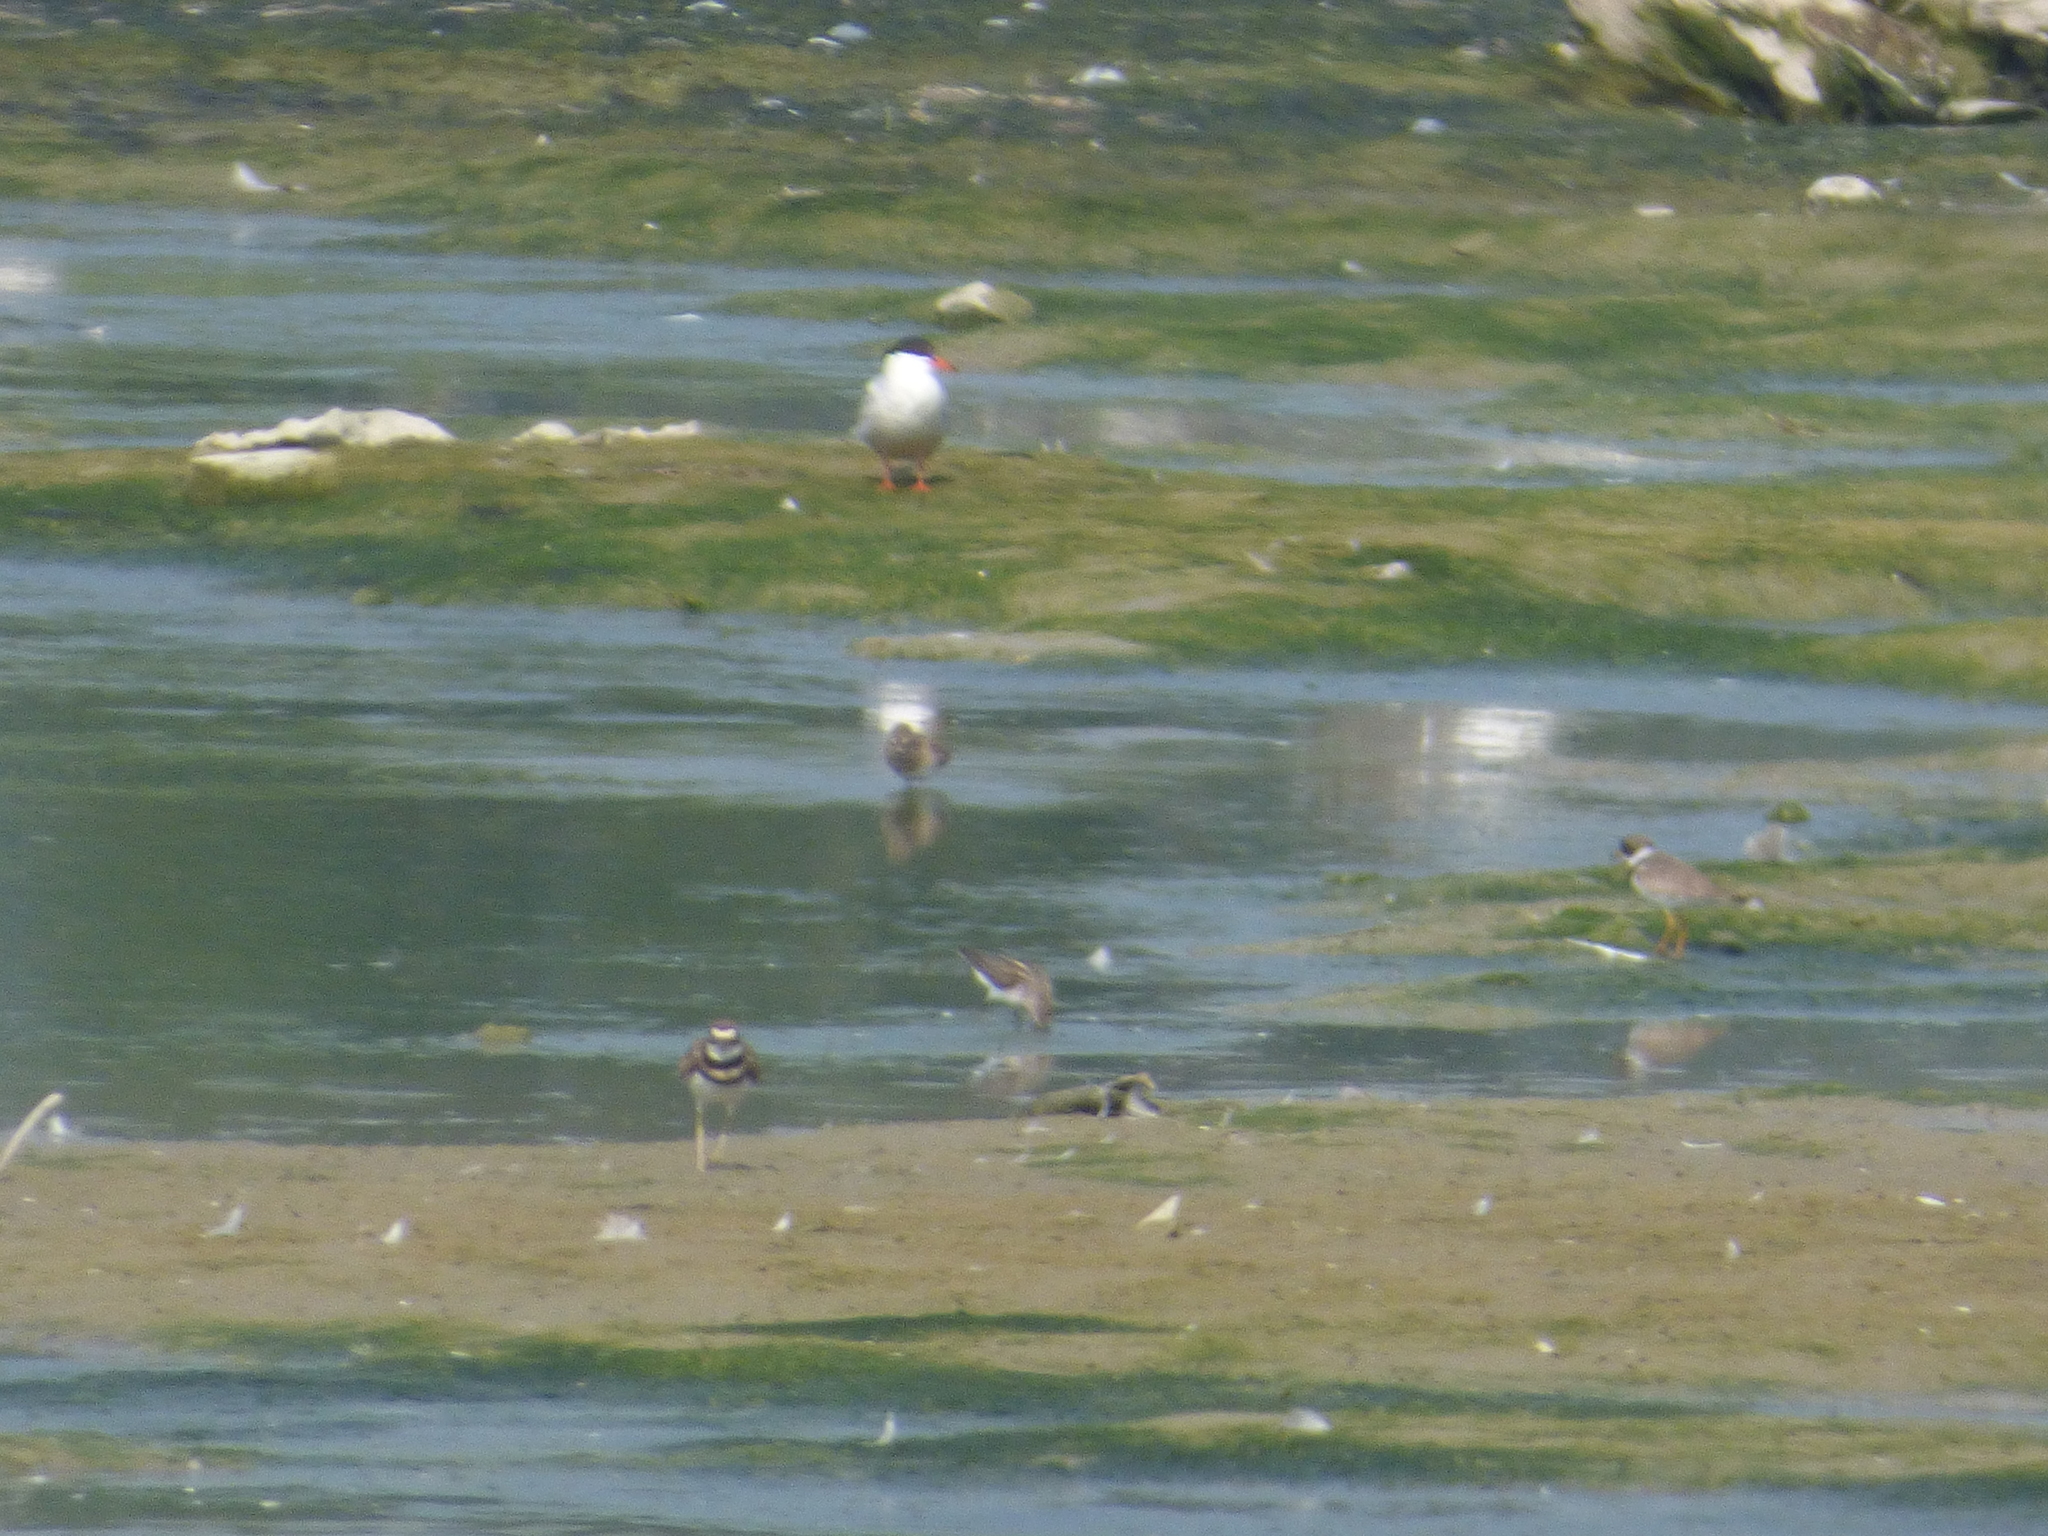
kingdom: Animalia
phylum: Chordata
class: Aves
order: Charadriiformes
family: Charadriidae
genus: Charadrius
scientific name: Charadrius semipalmatus
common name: Semipalmated plover
